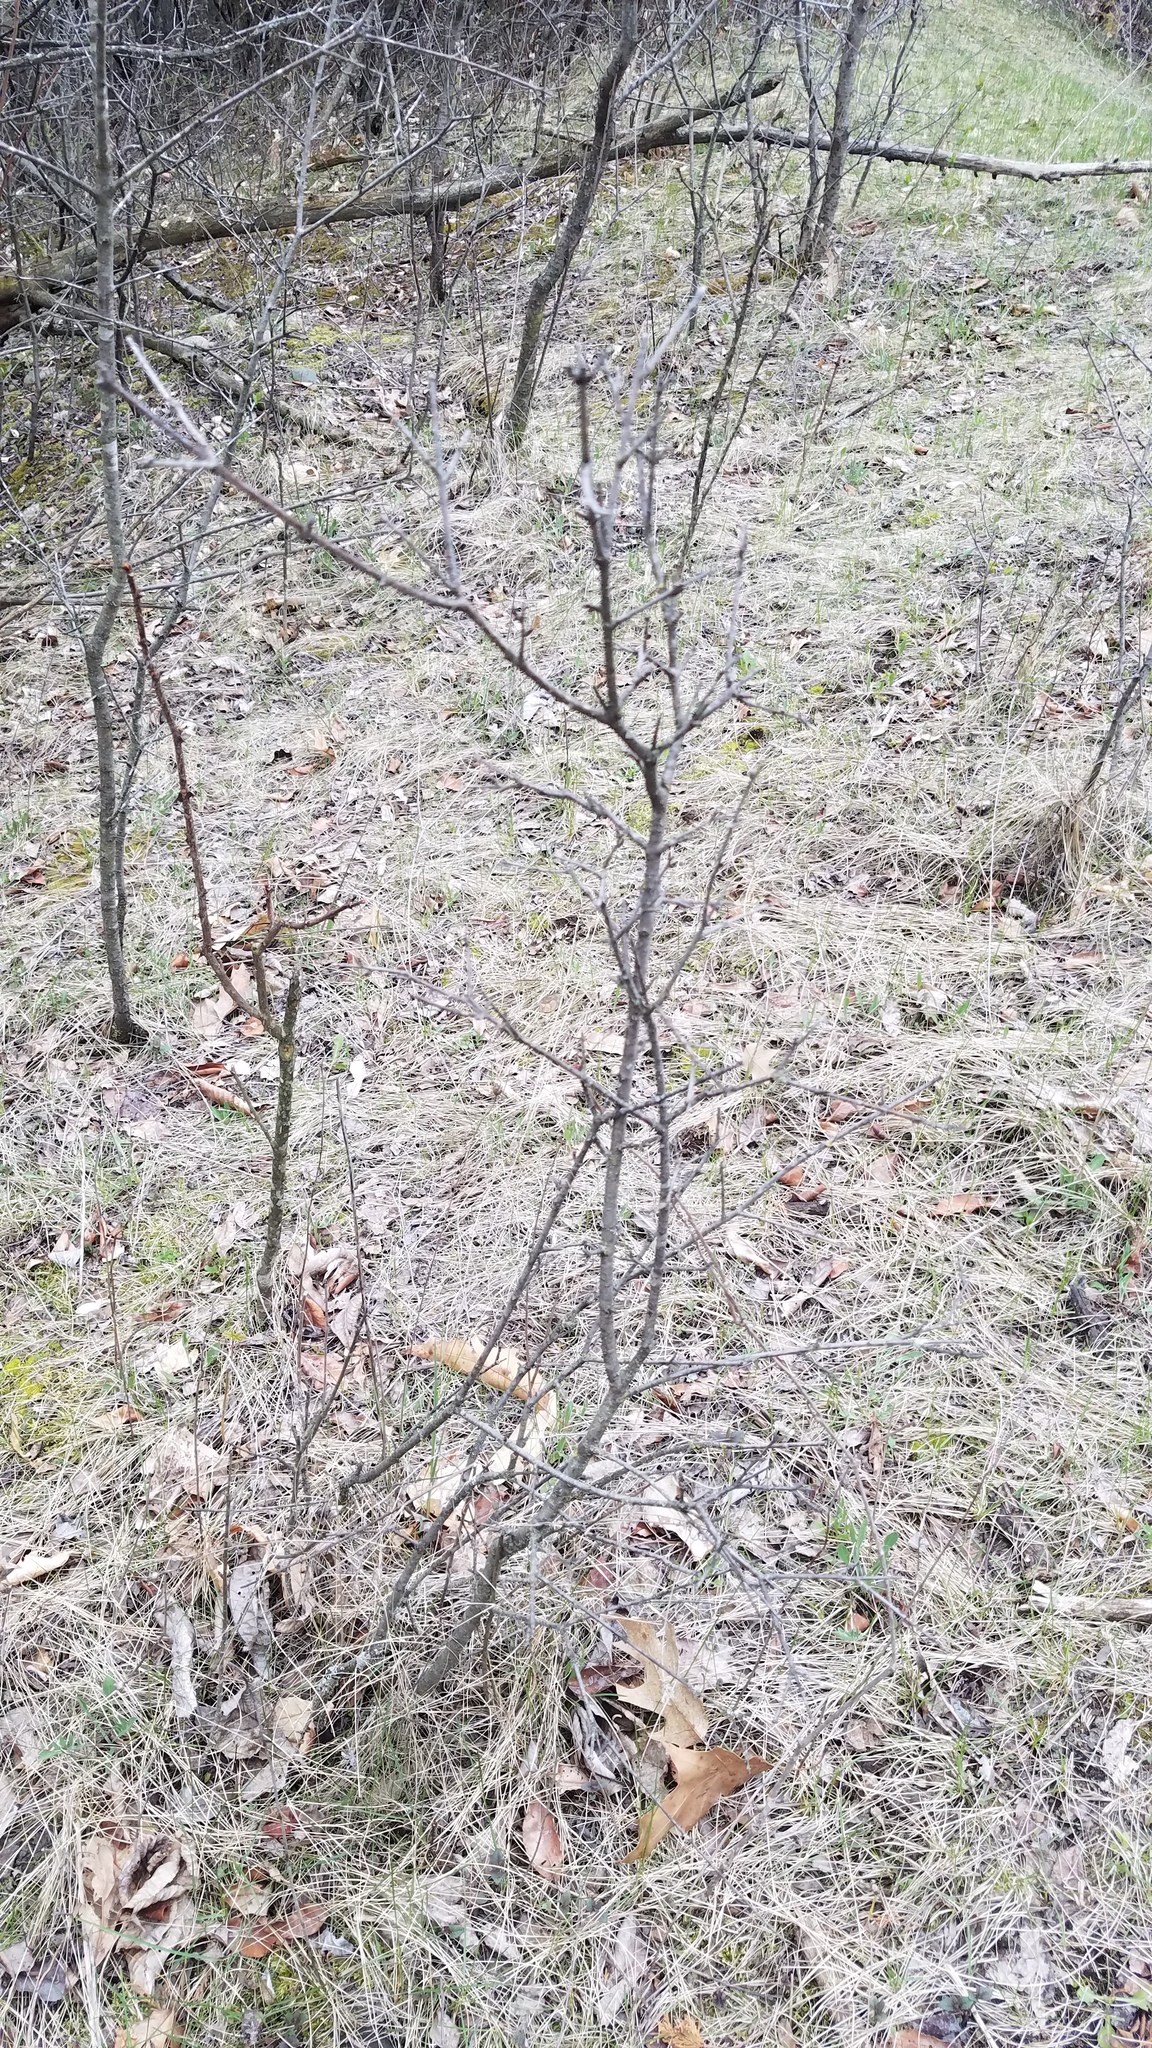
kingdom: Plantae
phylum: Tracheophyta
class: Magnoliopsida
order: Rosales
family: Rhamnaceae
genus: Rhamnus
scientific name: Rhamnus cathartica
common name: Common buckthorn
